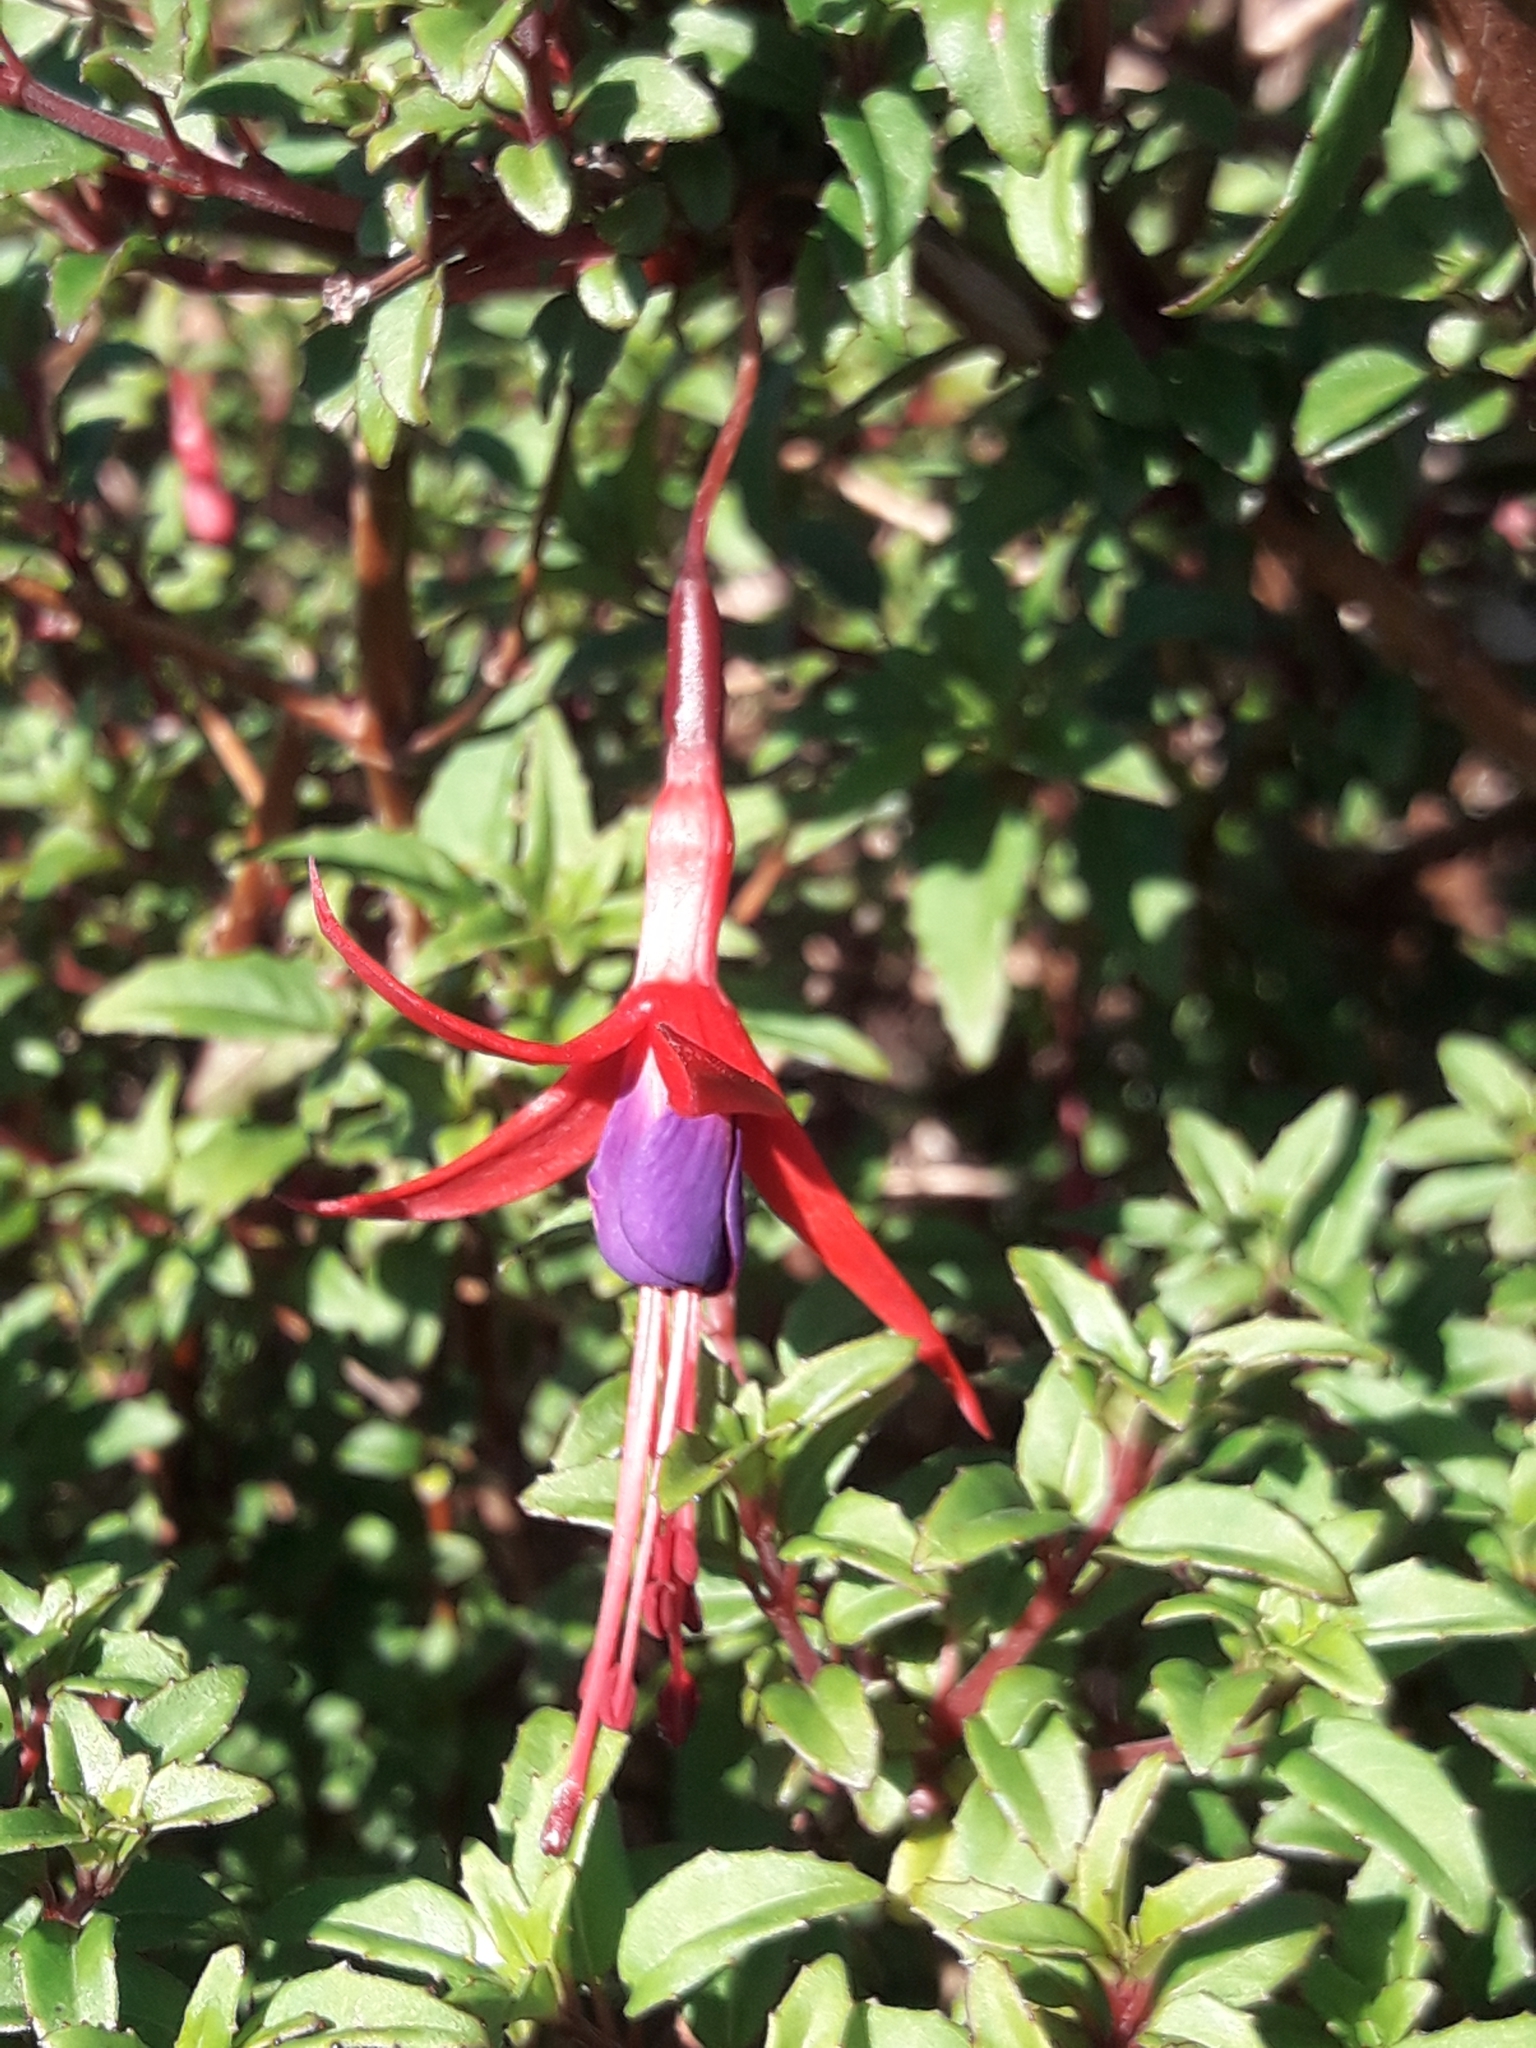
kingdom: Plantae
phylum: Tracheophyta
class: Magnoliopsida
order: Myrtales
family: Onagraceae
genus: Fuchsia
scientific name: Fuchsia magellanica
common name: Hardy fuchsia
